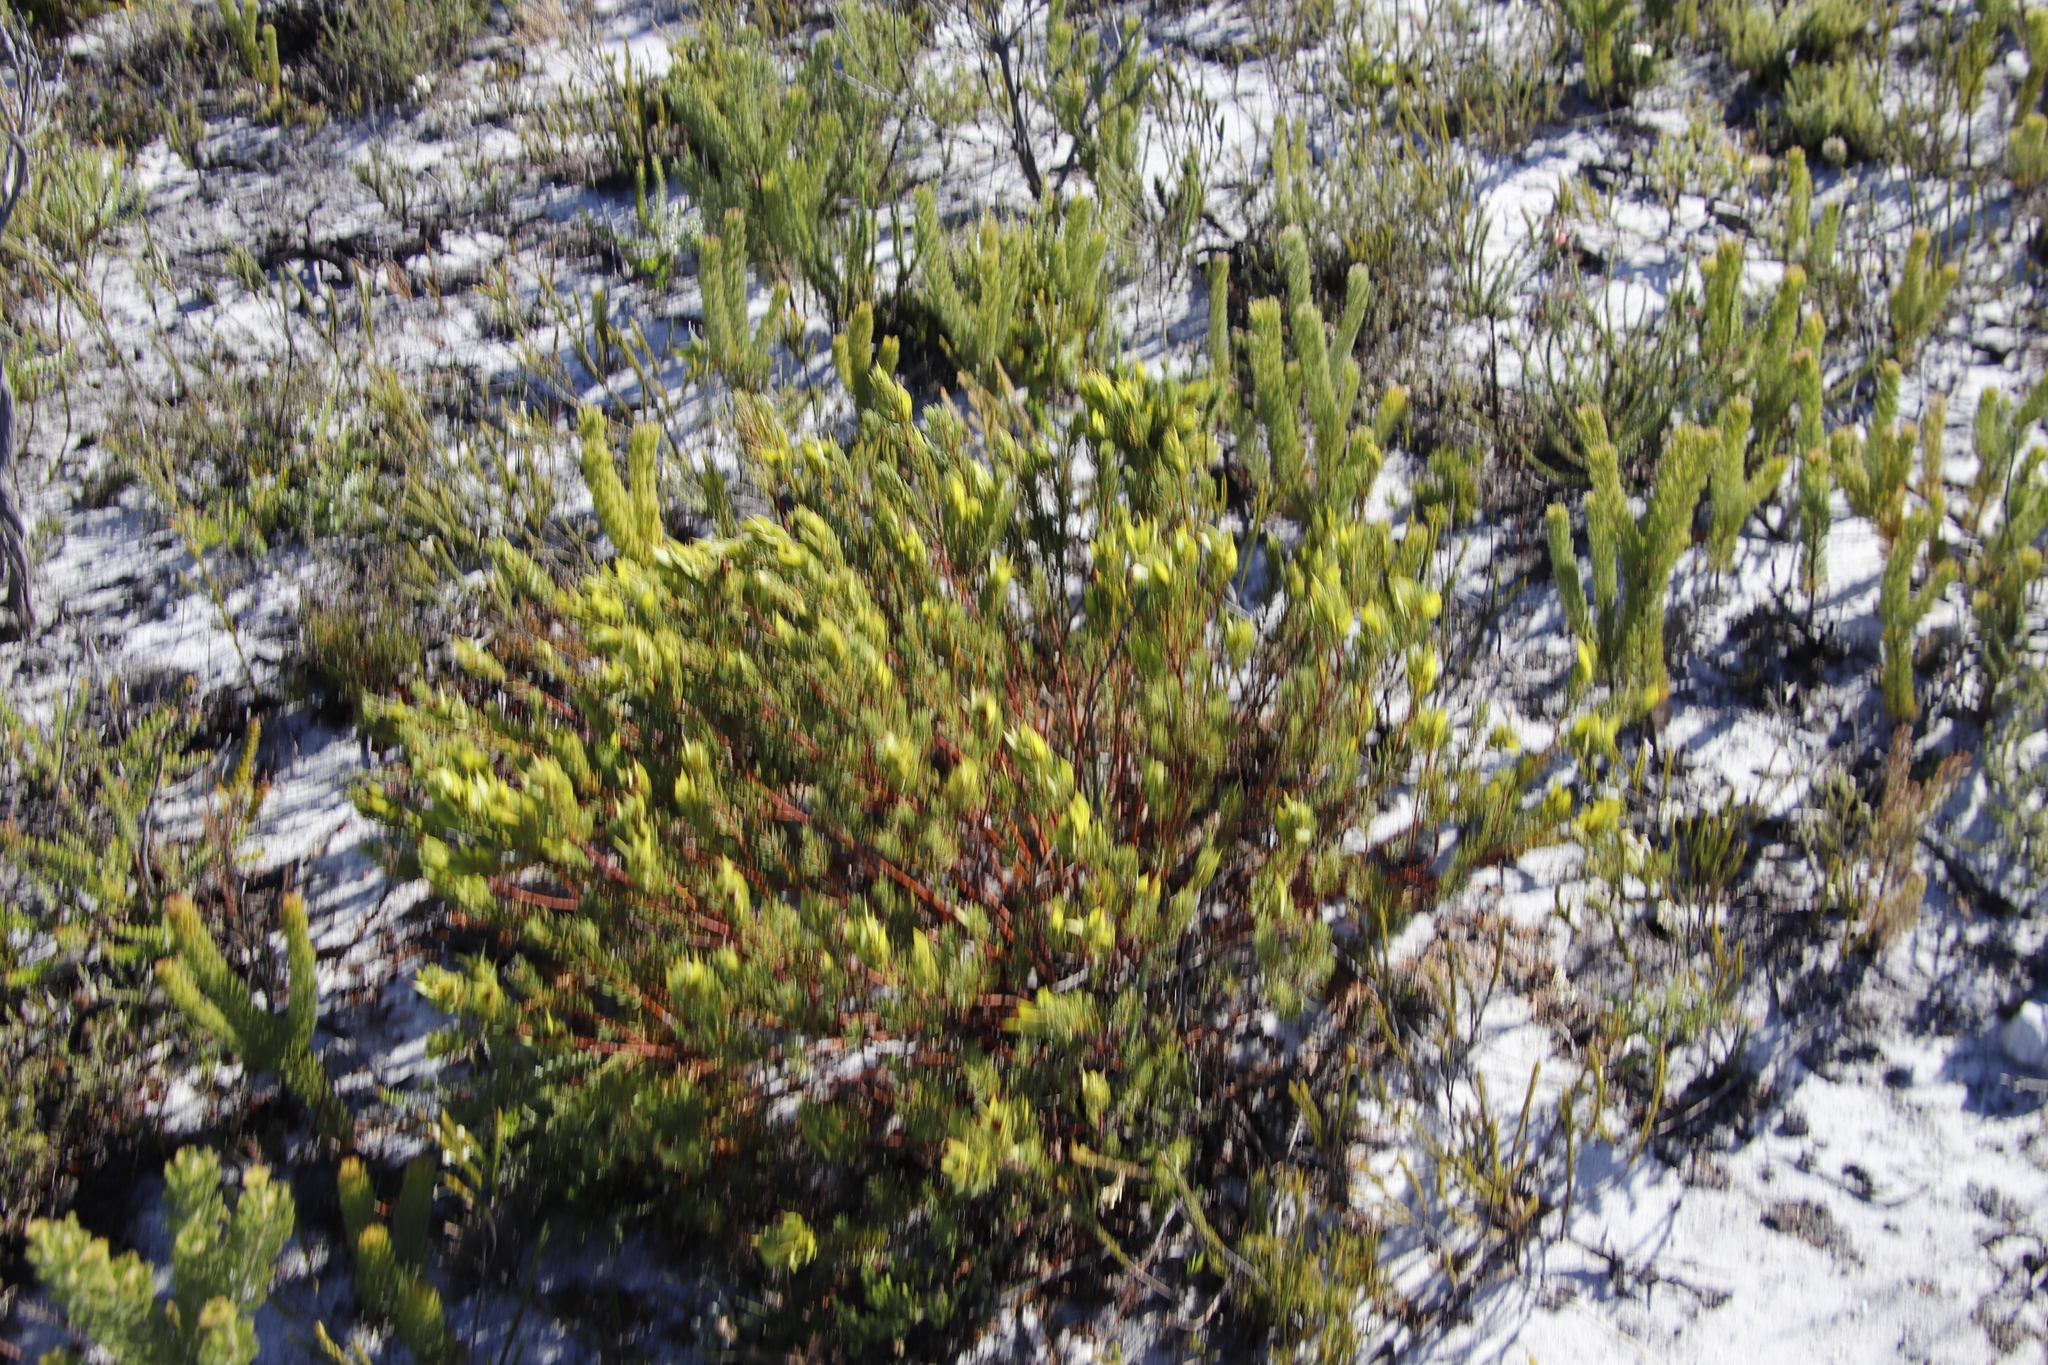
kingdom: Plantae
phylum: Tracheophyta
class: Magnoliopsida
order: Fabales
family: Fabaceae
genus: Cyclopia
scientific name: Cyclopia genistoides
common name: Honeybush tea
